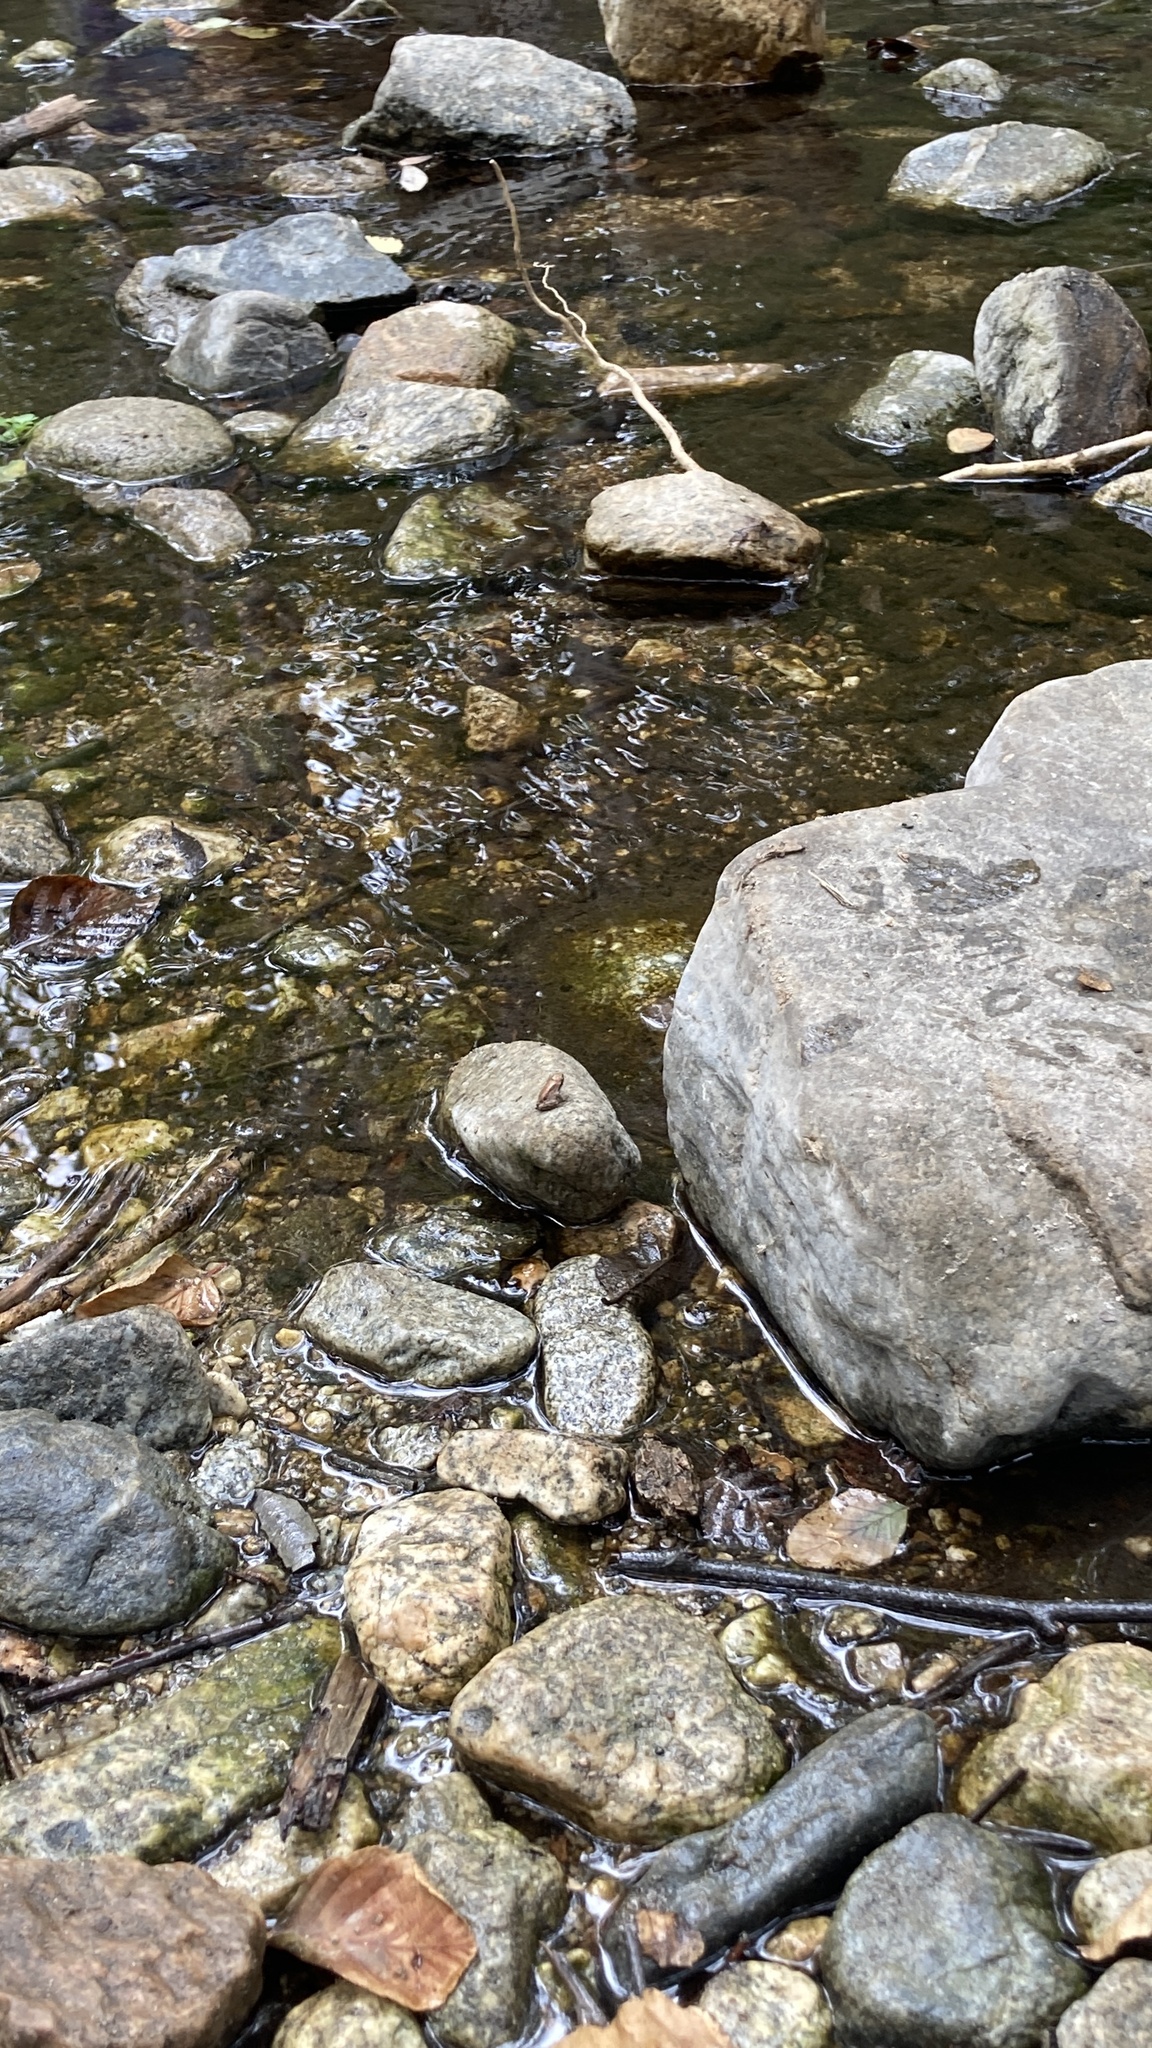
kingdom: Animalia
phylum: Chordata
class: Amphibia
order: Anura
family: Hylidae
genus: Pseudacris
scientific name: Pseudacris regilla
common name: Pacific chorus frog
